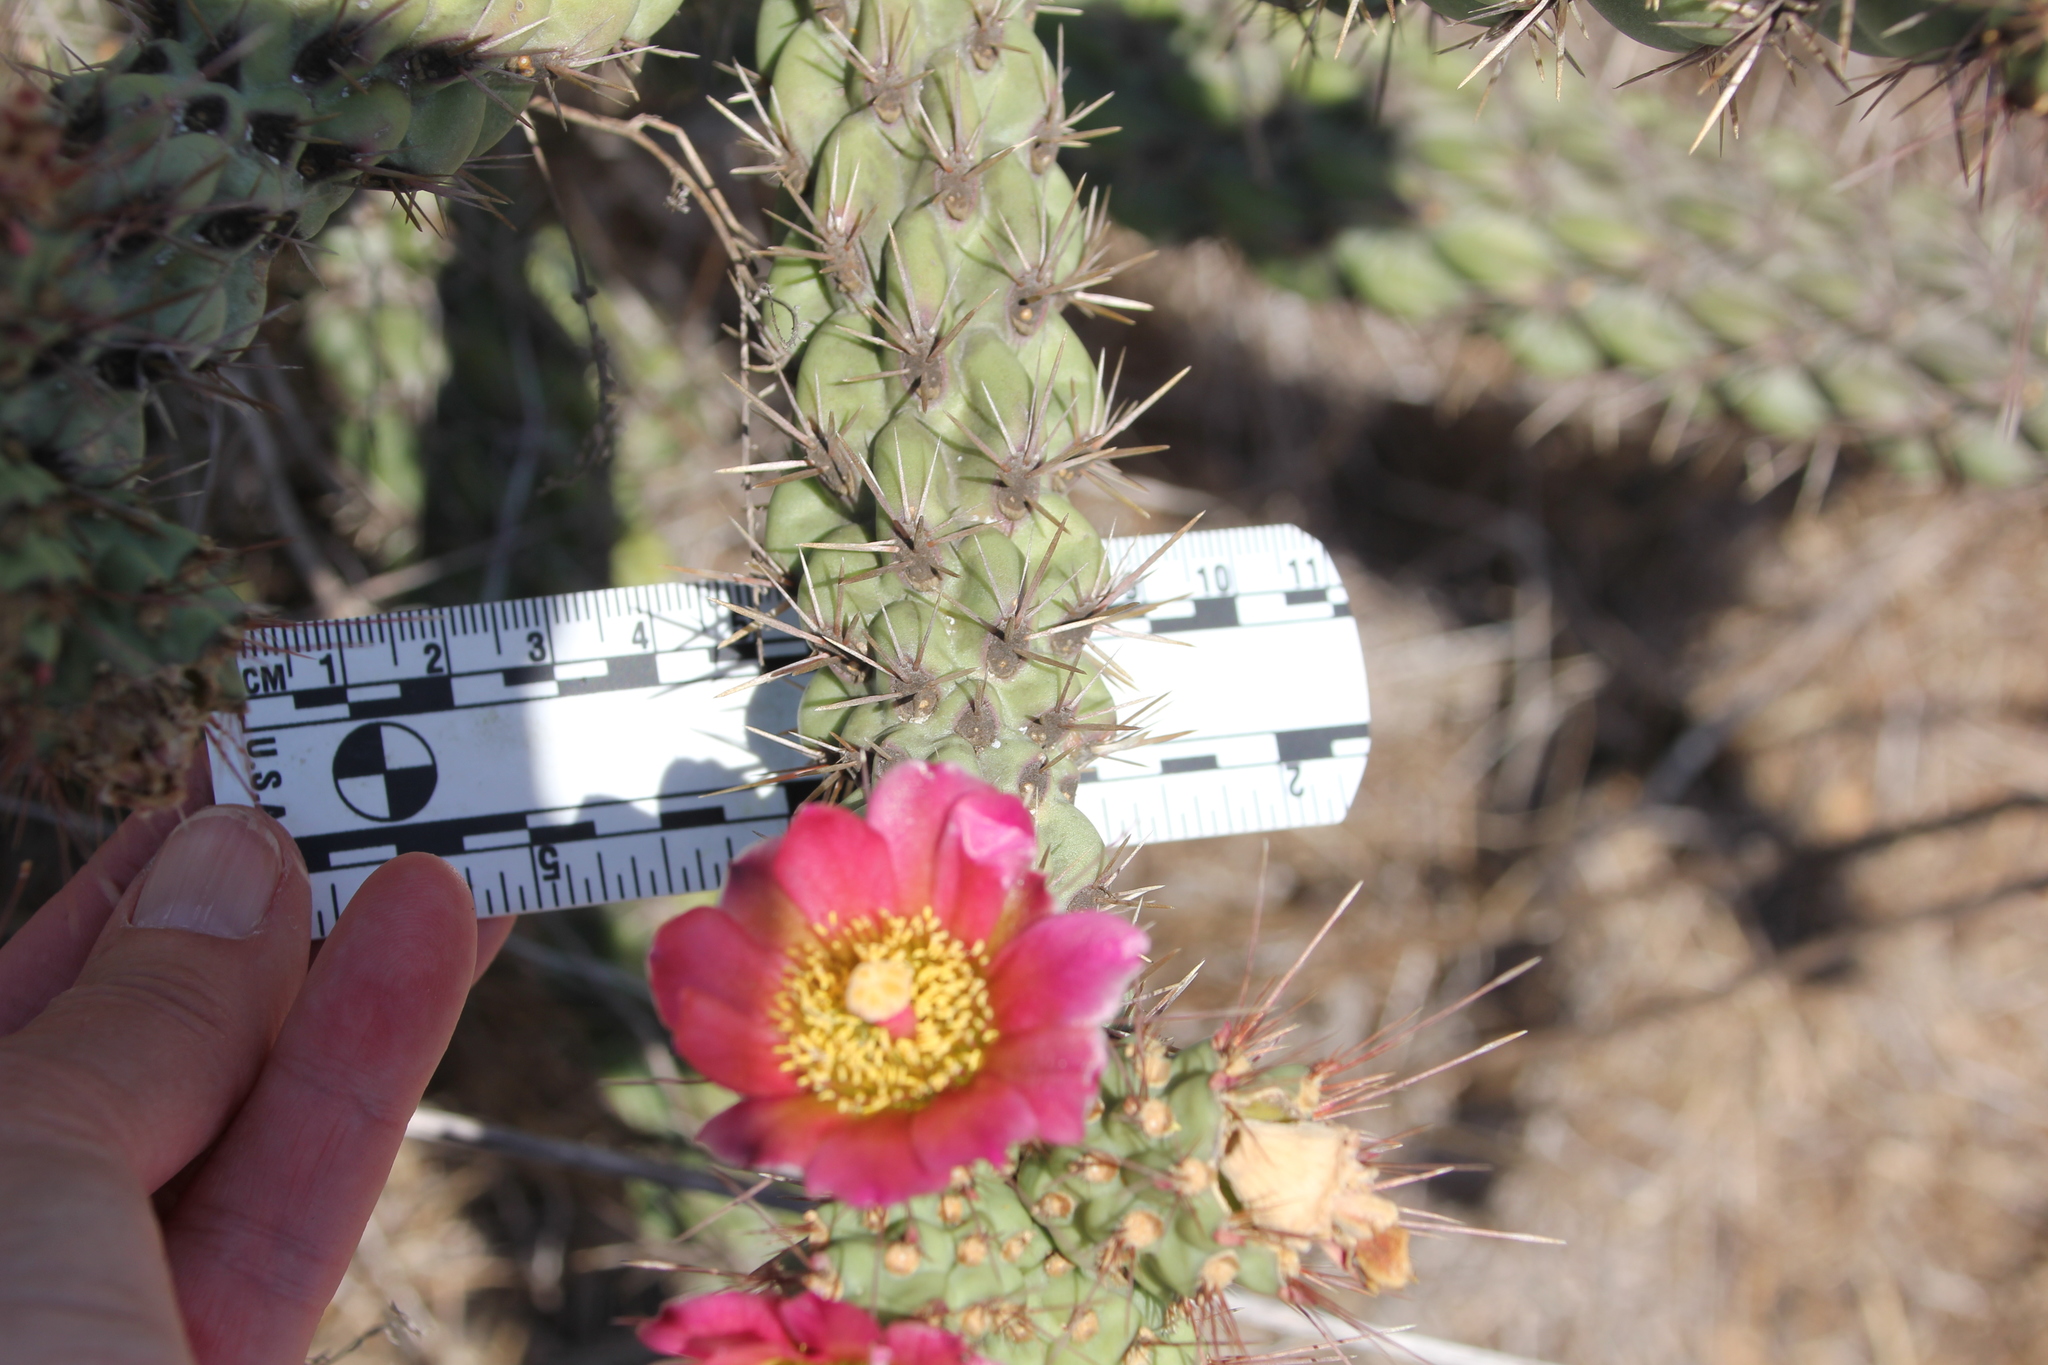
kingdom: Plantae
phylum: Tracheophyta
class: Magnoliopsida
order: Caryophyllales
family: Cactaceae
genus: Cylindropuntia
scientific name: Cylindropuntia prolifera
